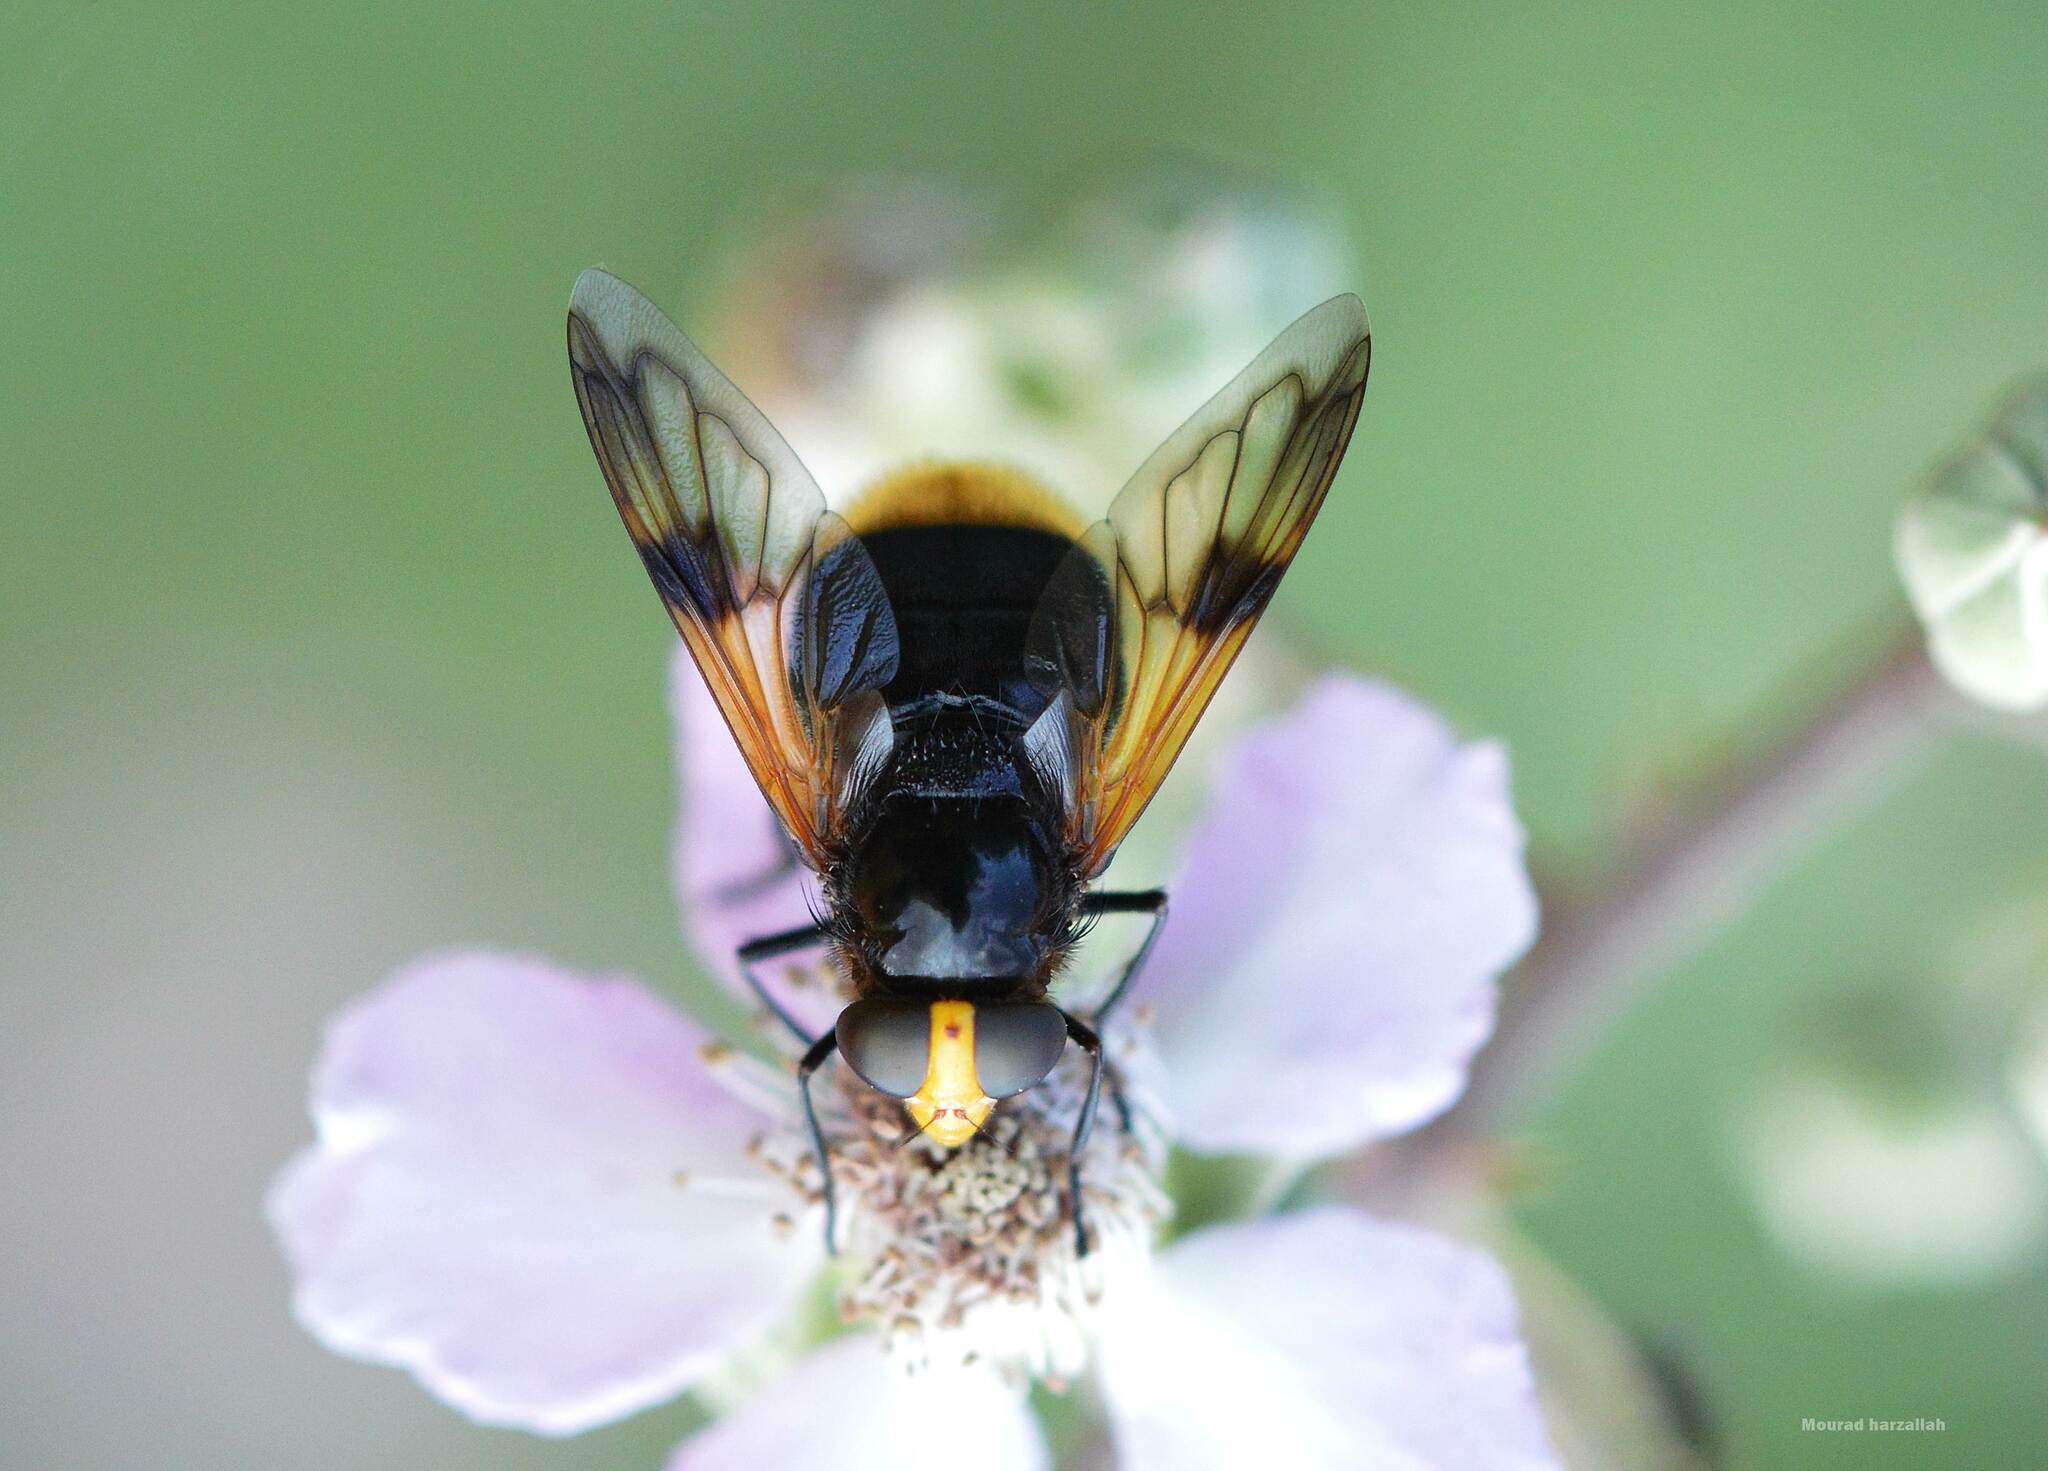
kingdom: Animalia
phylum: Arthropoda
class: Insecta
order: Diptera
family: Syrphidae
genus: Volucella
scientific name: Volucella liquida
